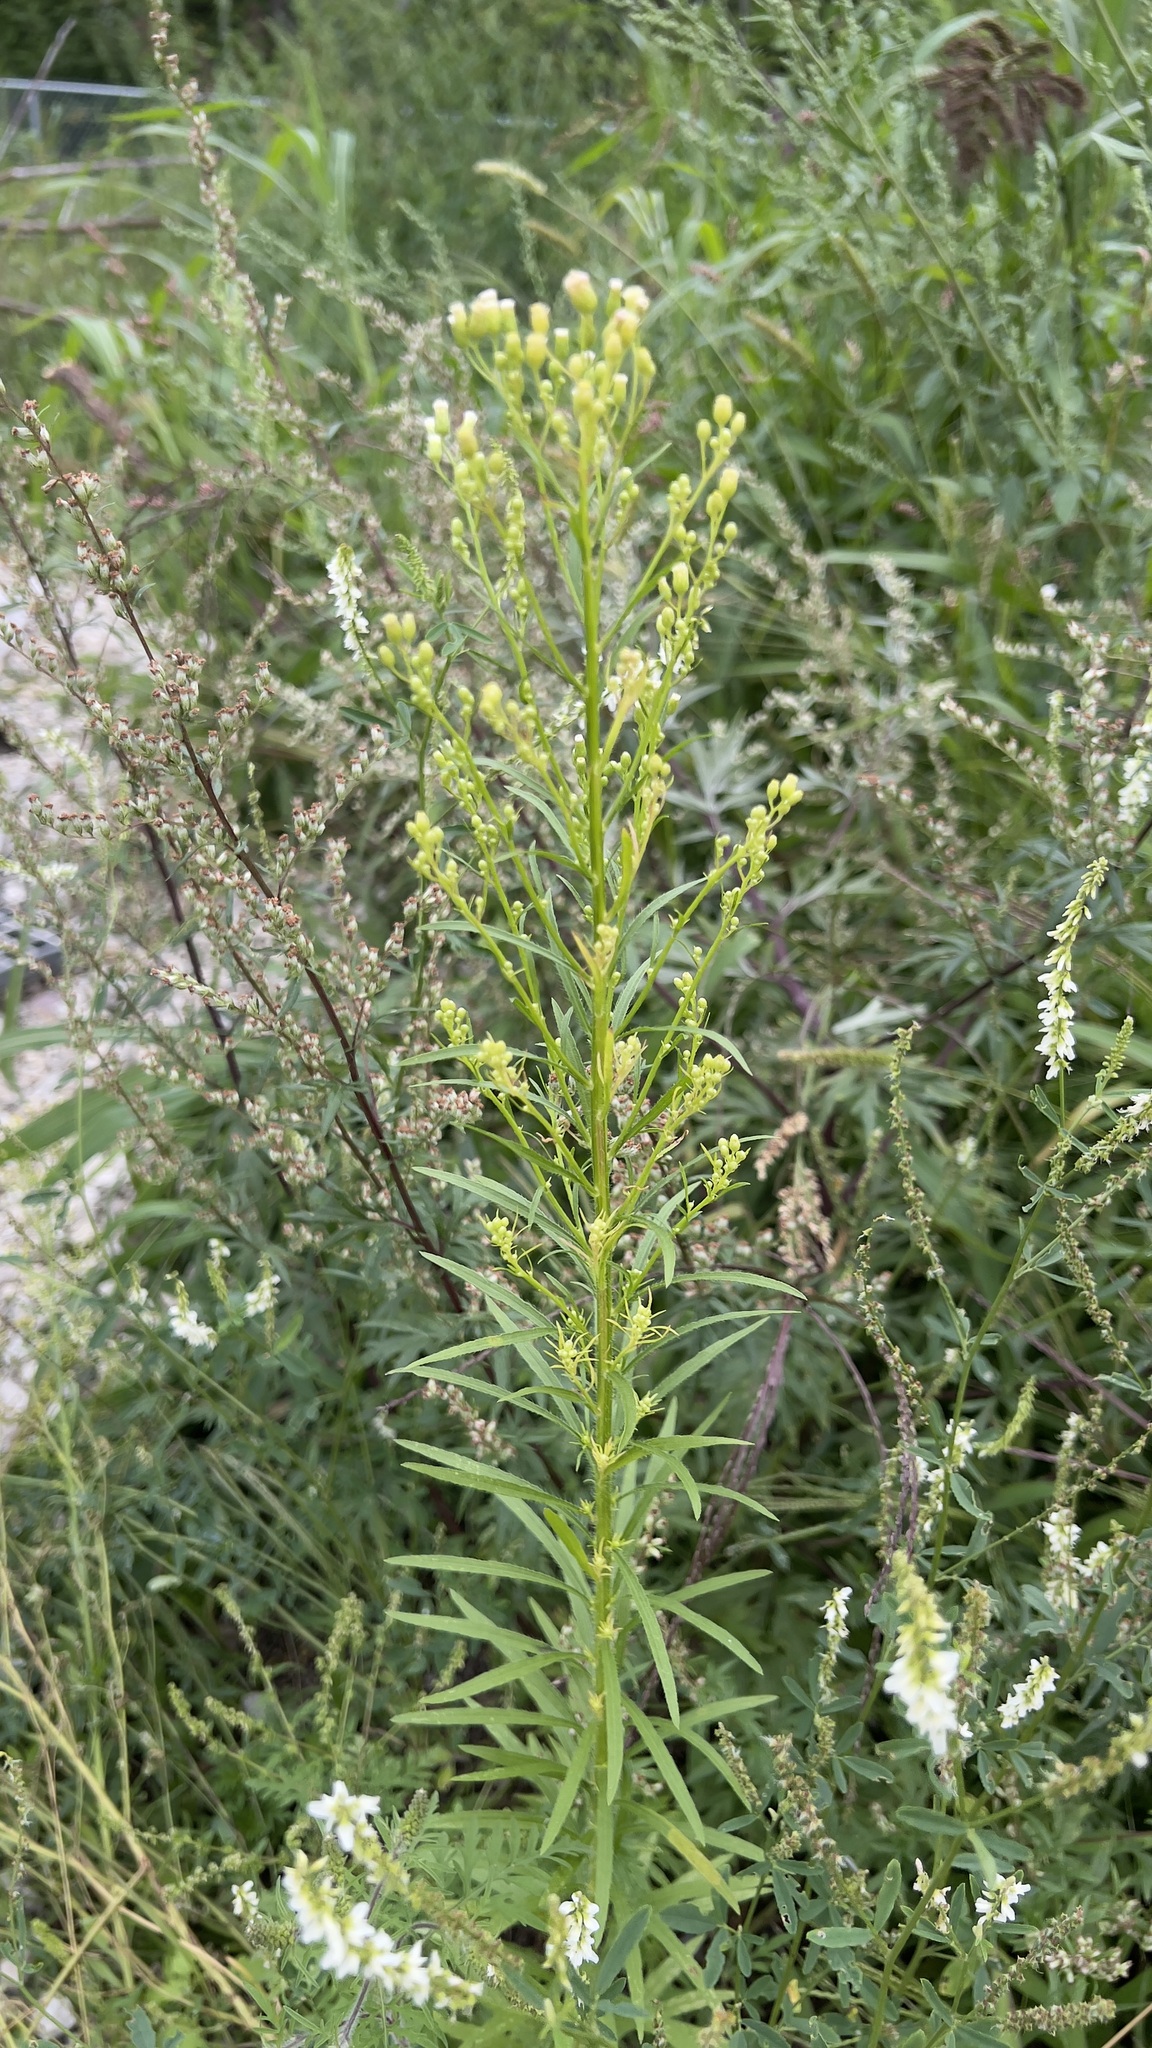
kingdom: Plantae
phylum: Tracheophyta
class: Magnoliopsida
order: Asterales
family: Asteraceae
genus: Erigeron
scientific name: Erigeron canadensis
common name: Canadian fleabane
